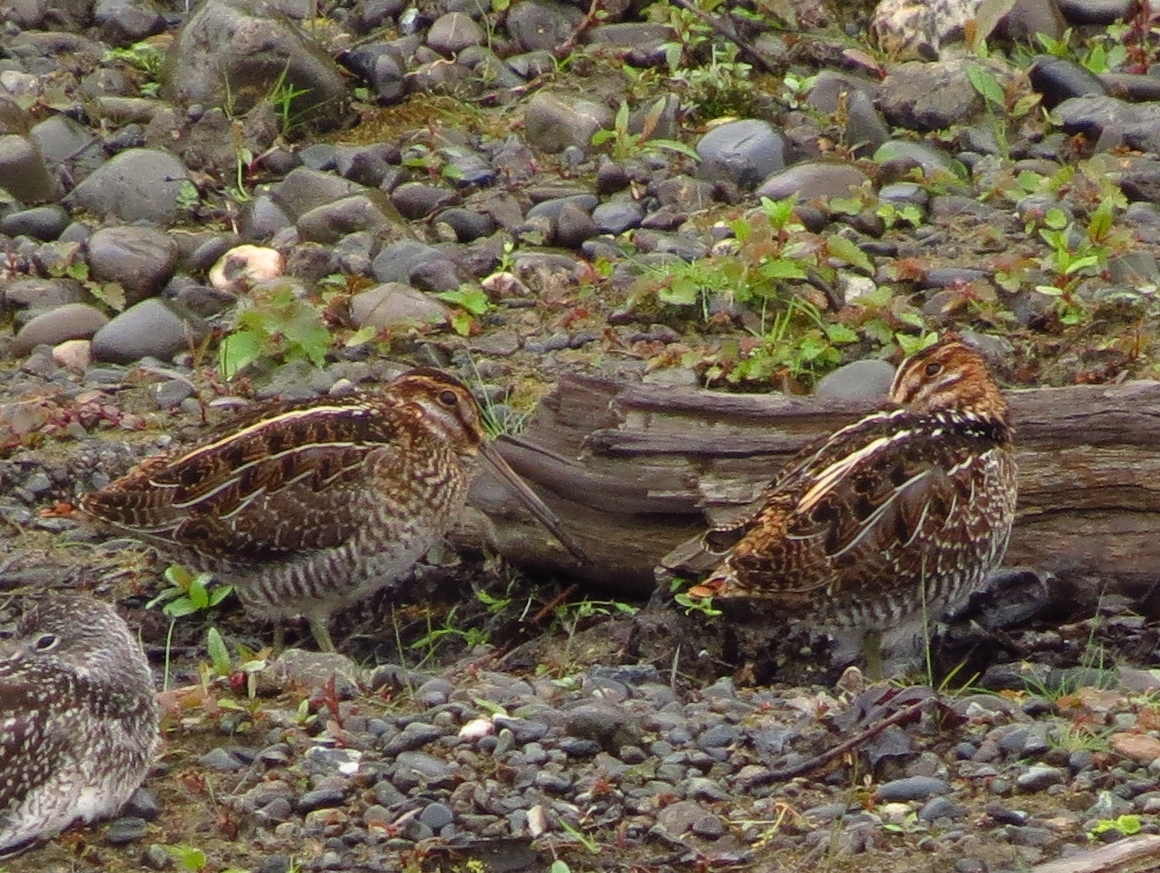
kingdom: Animalia
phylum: Chordata
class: Aves
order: Charadriiformes
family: Scolopacidae
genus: Gallinago
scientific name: Gallinago delicata
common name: Wilson's snipe
